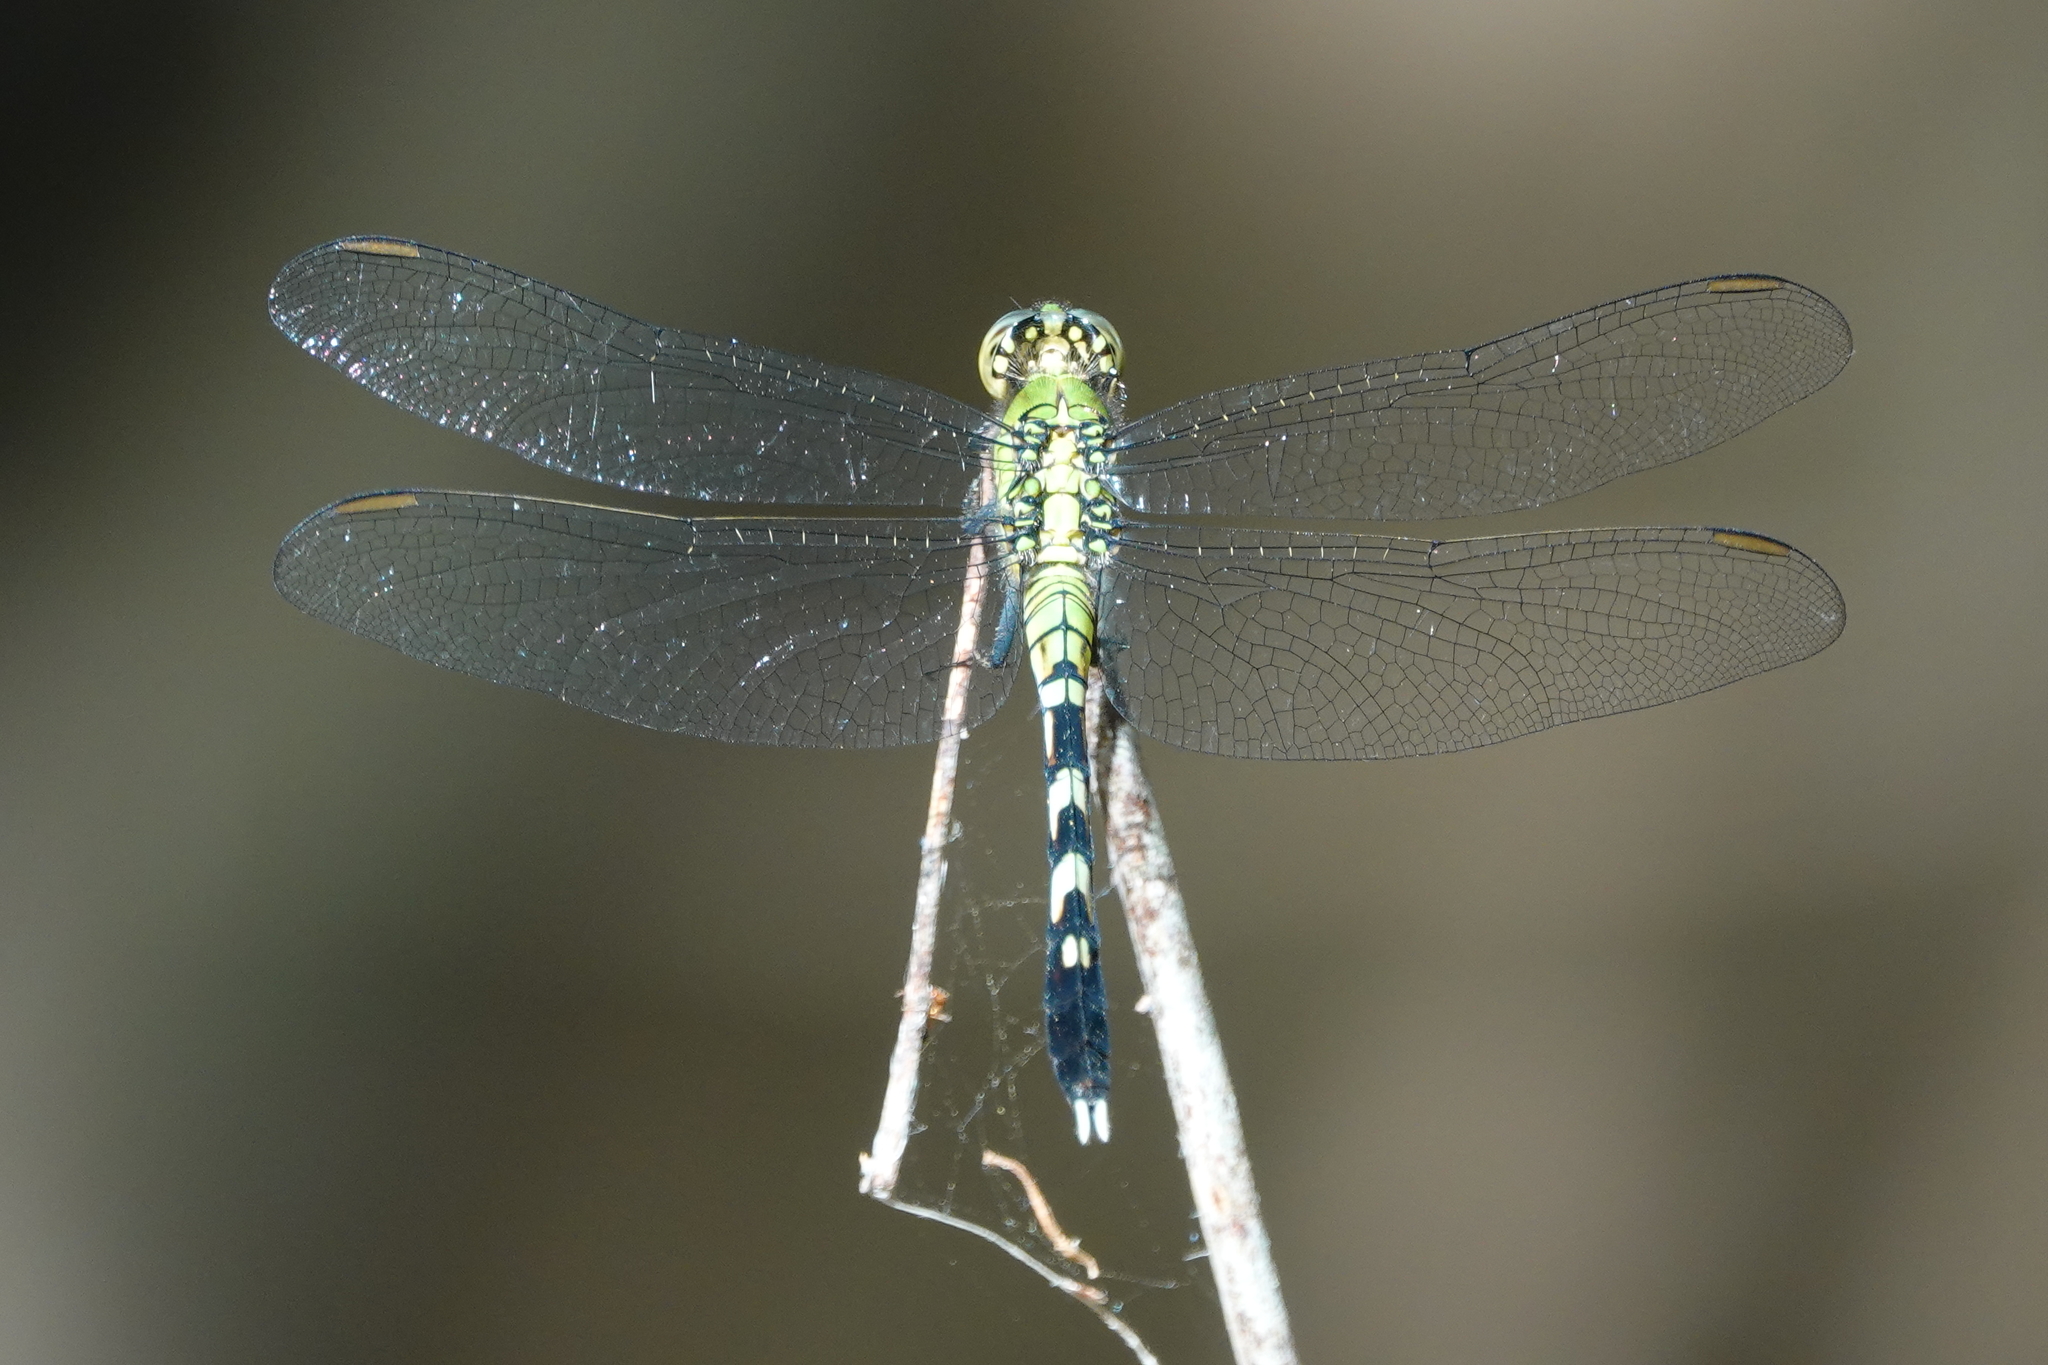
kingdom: Animalia
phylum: Arthropoda
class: Insecta
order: Odonata
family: Libellulidae
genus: Erythemis
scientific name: Erythemis simplicicollis
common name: Eastern pondhawk
